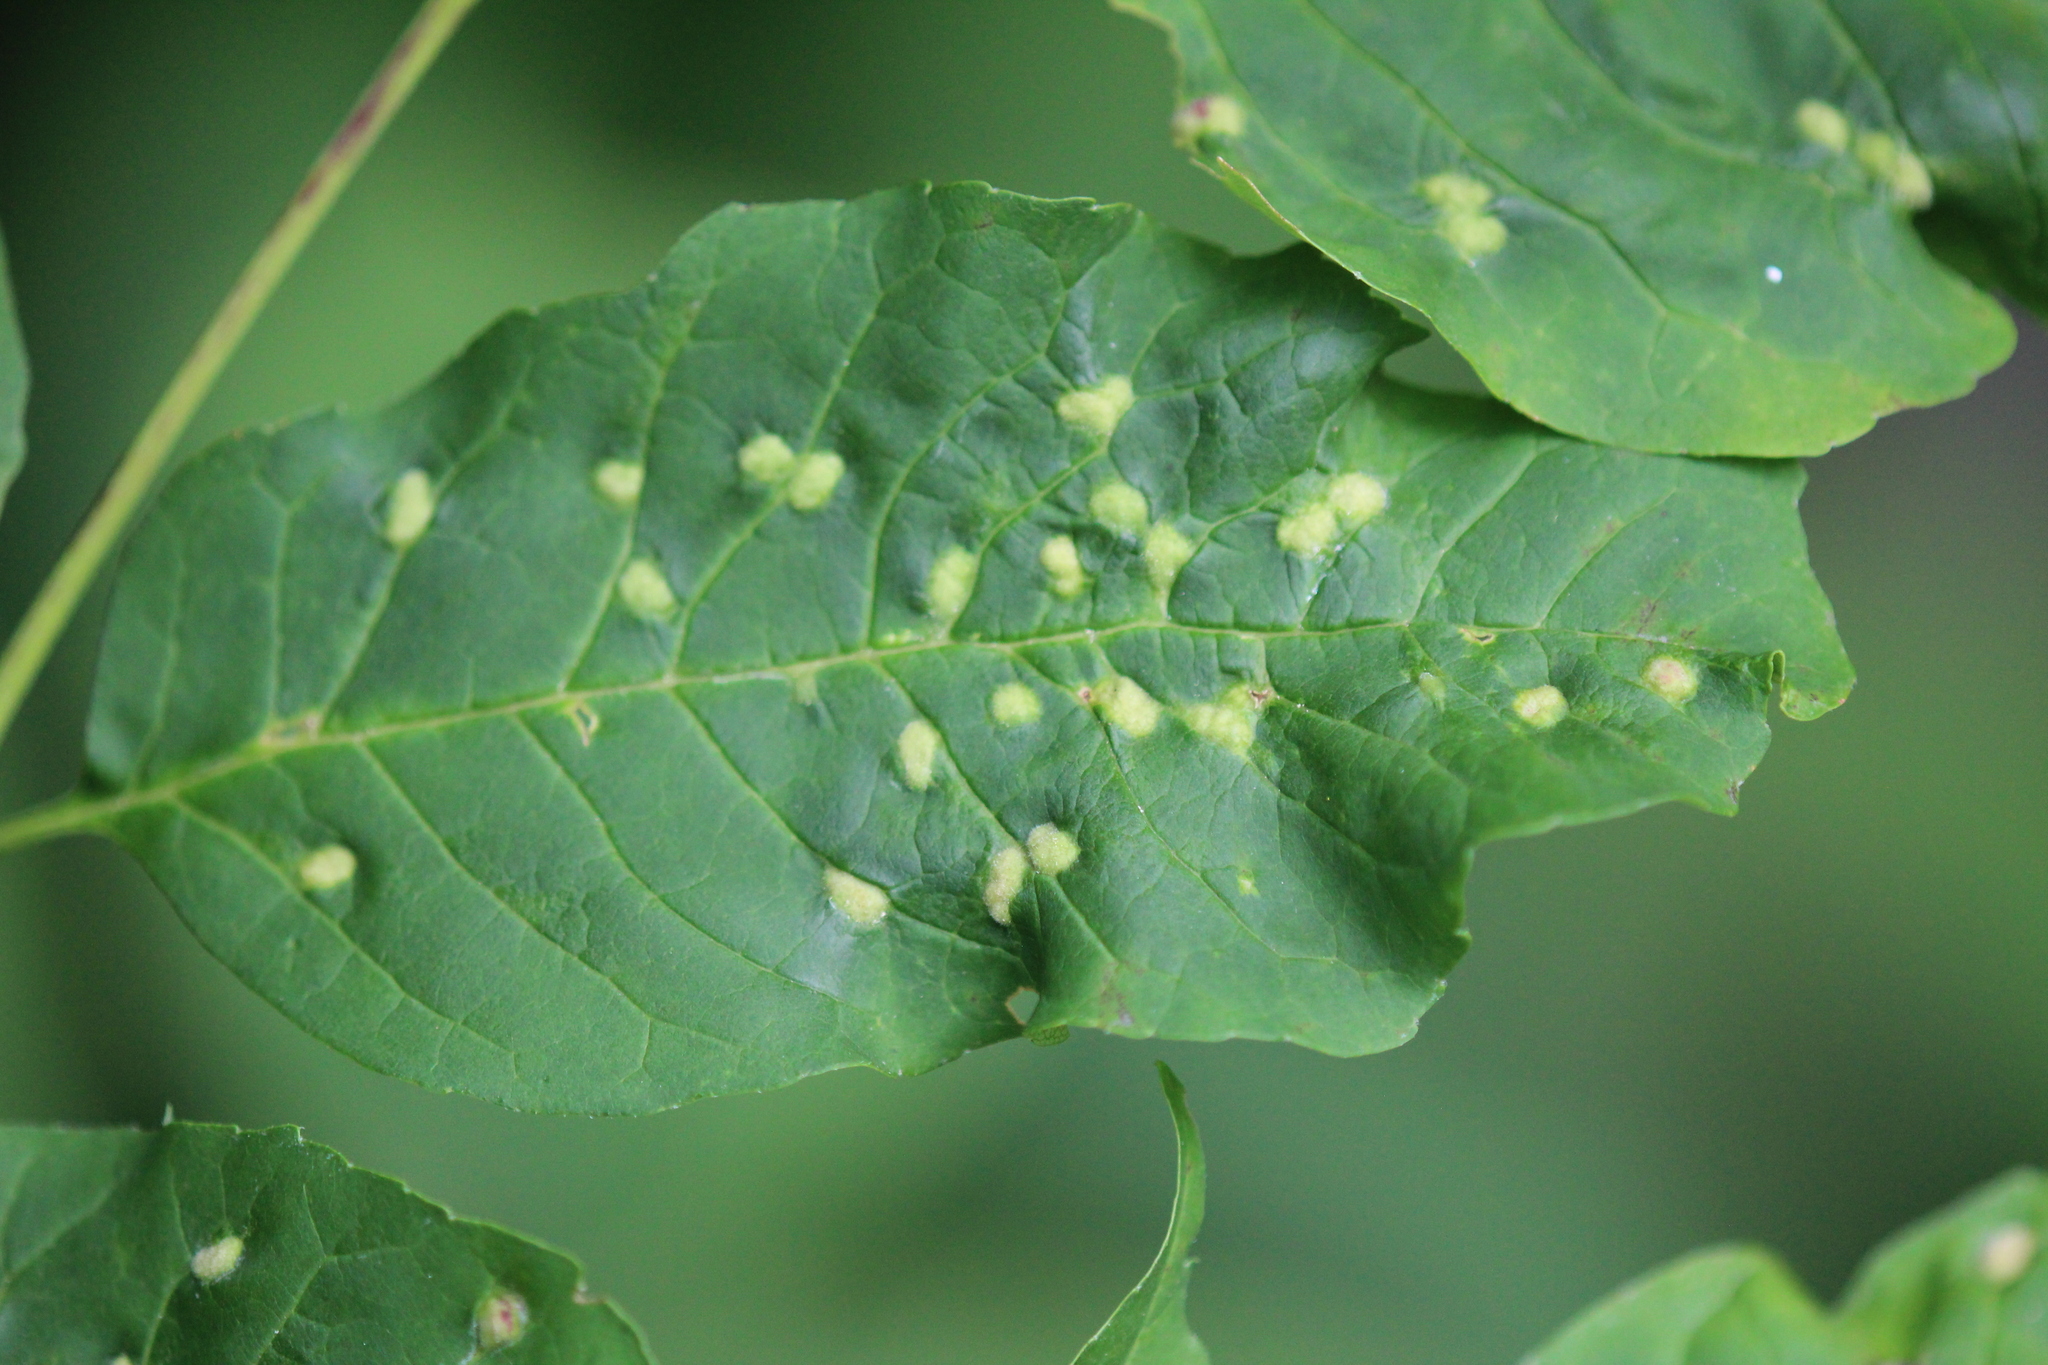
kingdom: Animalia
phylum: Arthropoda
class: Arachnida
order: Trombidiformes
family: Eriophyidae
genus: Aceria
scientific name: Aceria fraxinicola
